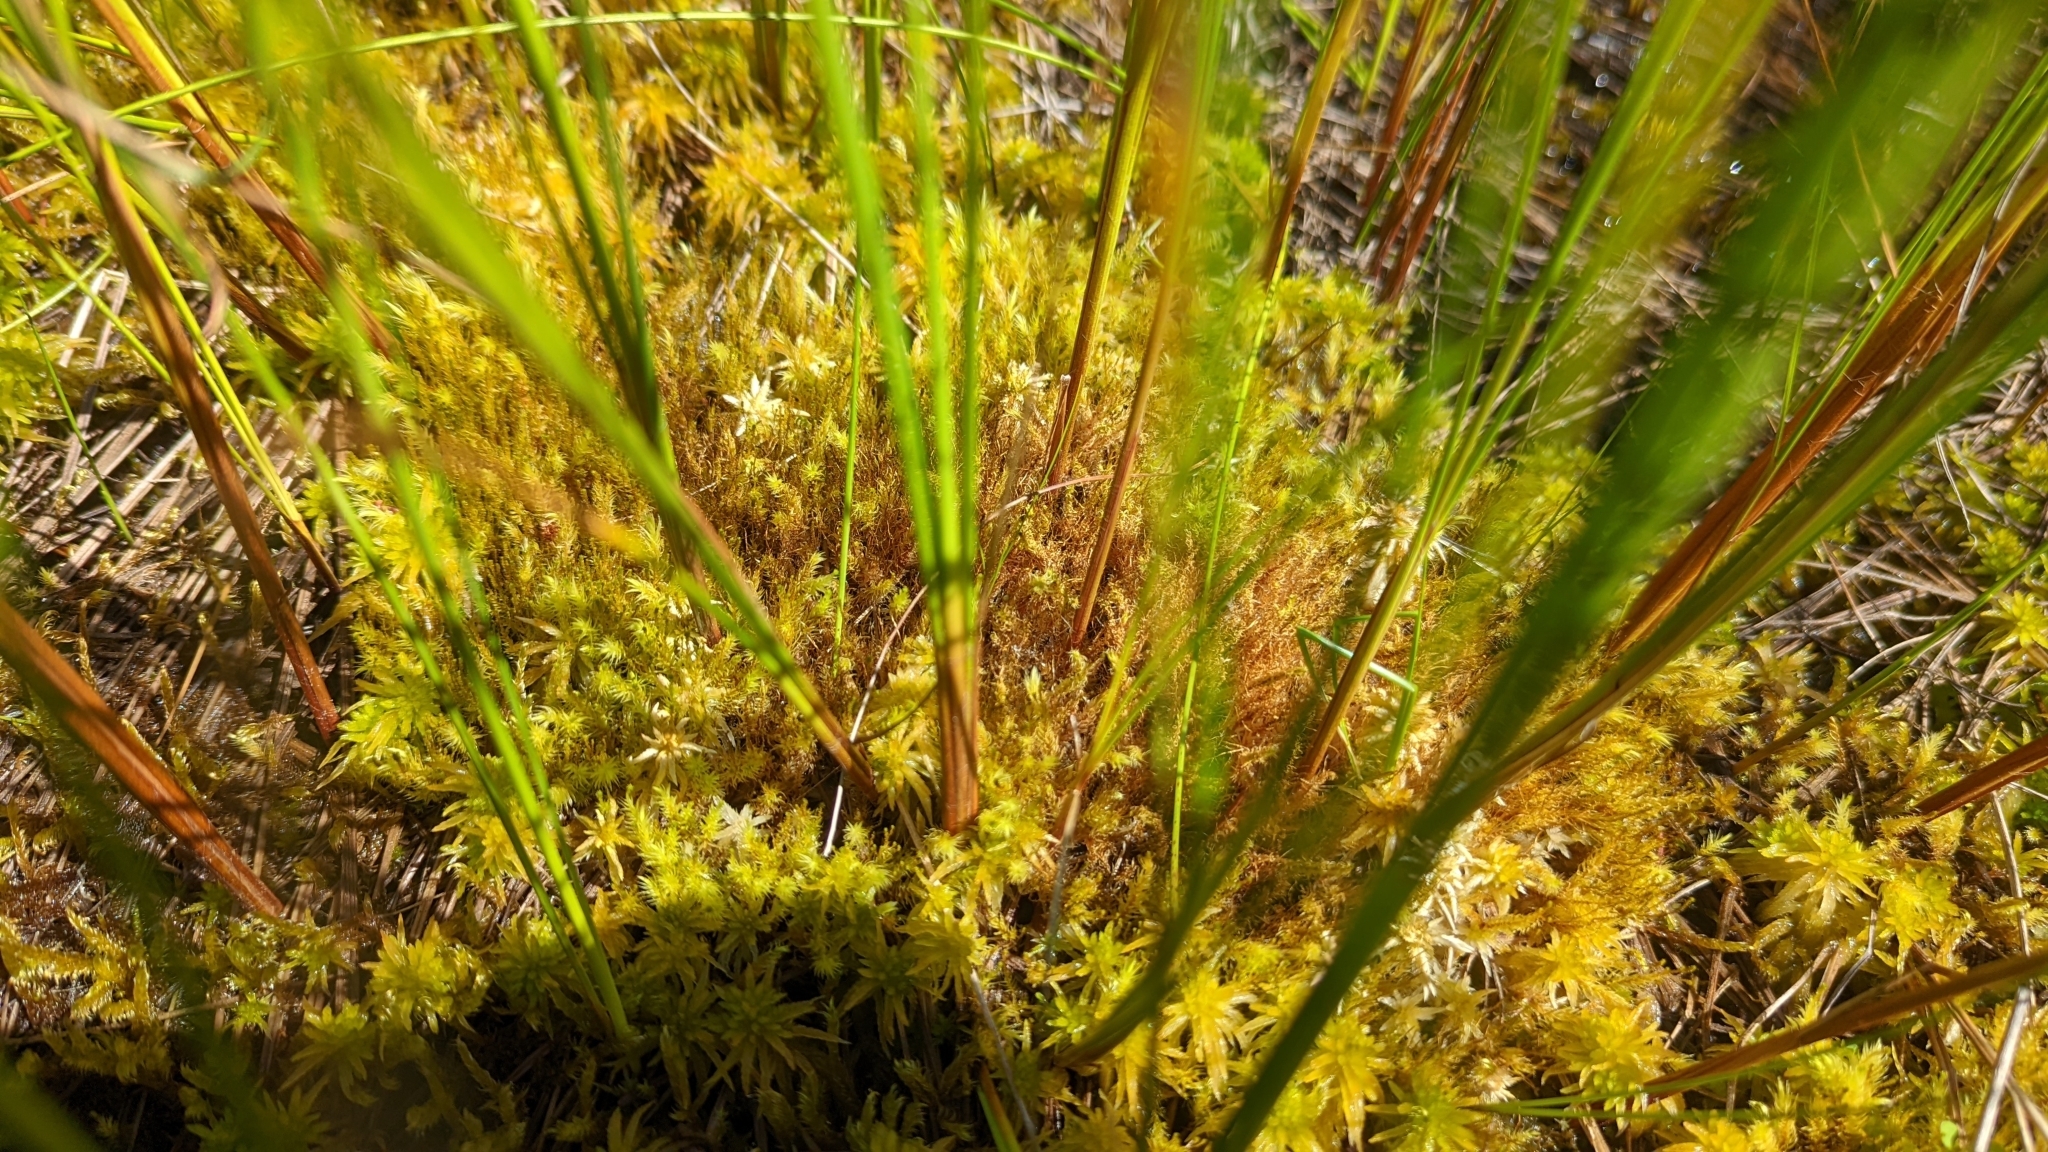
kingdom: Plantae
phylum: Bryophyta
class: Bryopsida
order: Hypnales
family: Amblystegiaceae
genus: Drepanocladus
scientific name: Drepanocladus aduncus
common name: Knieff's hook moss
